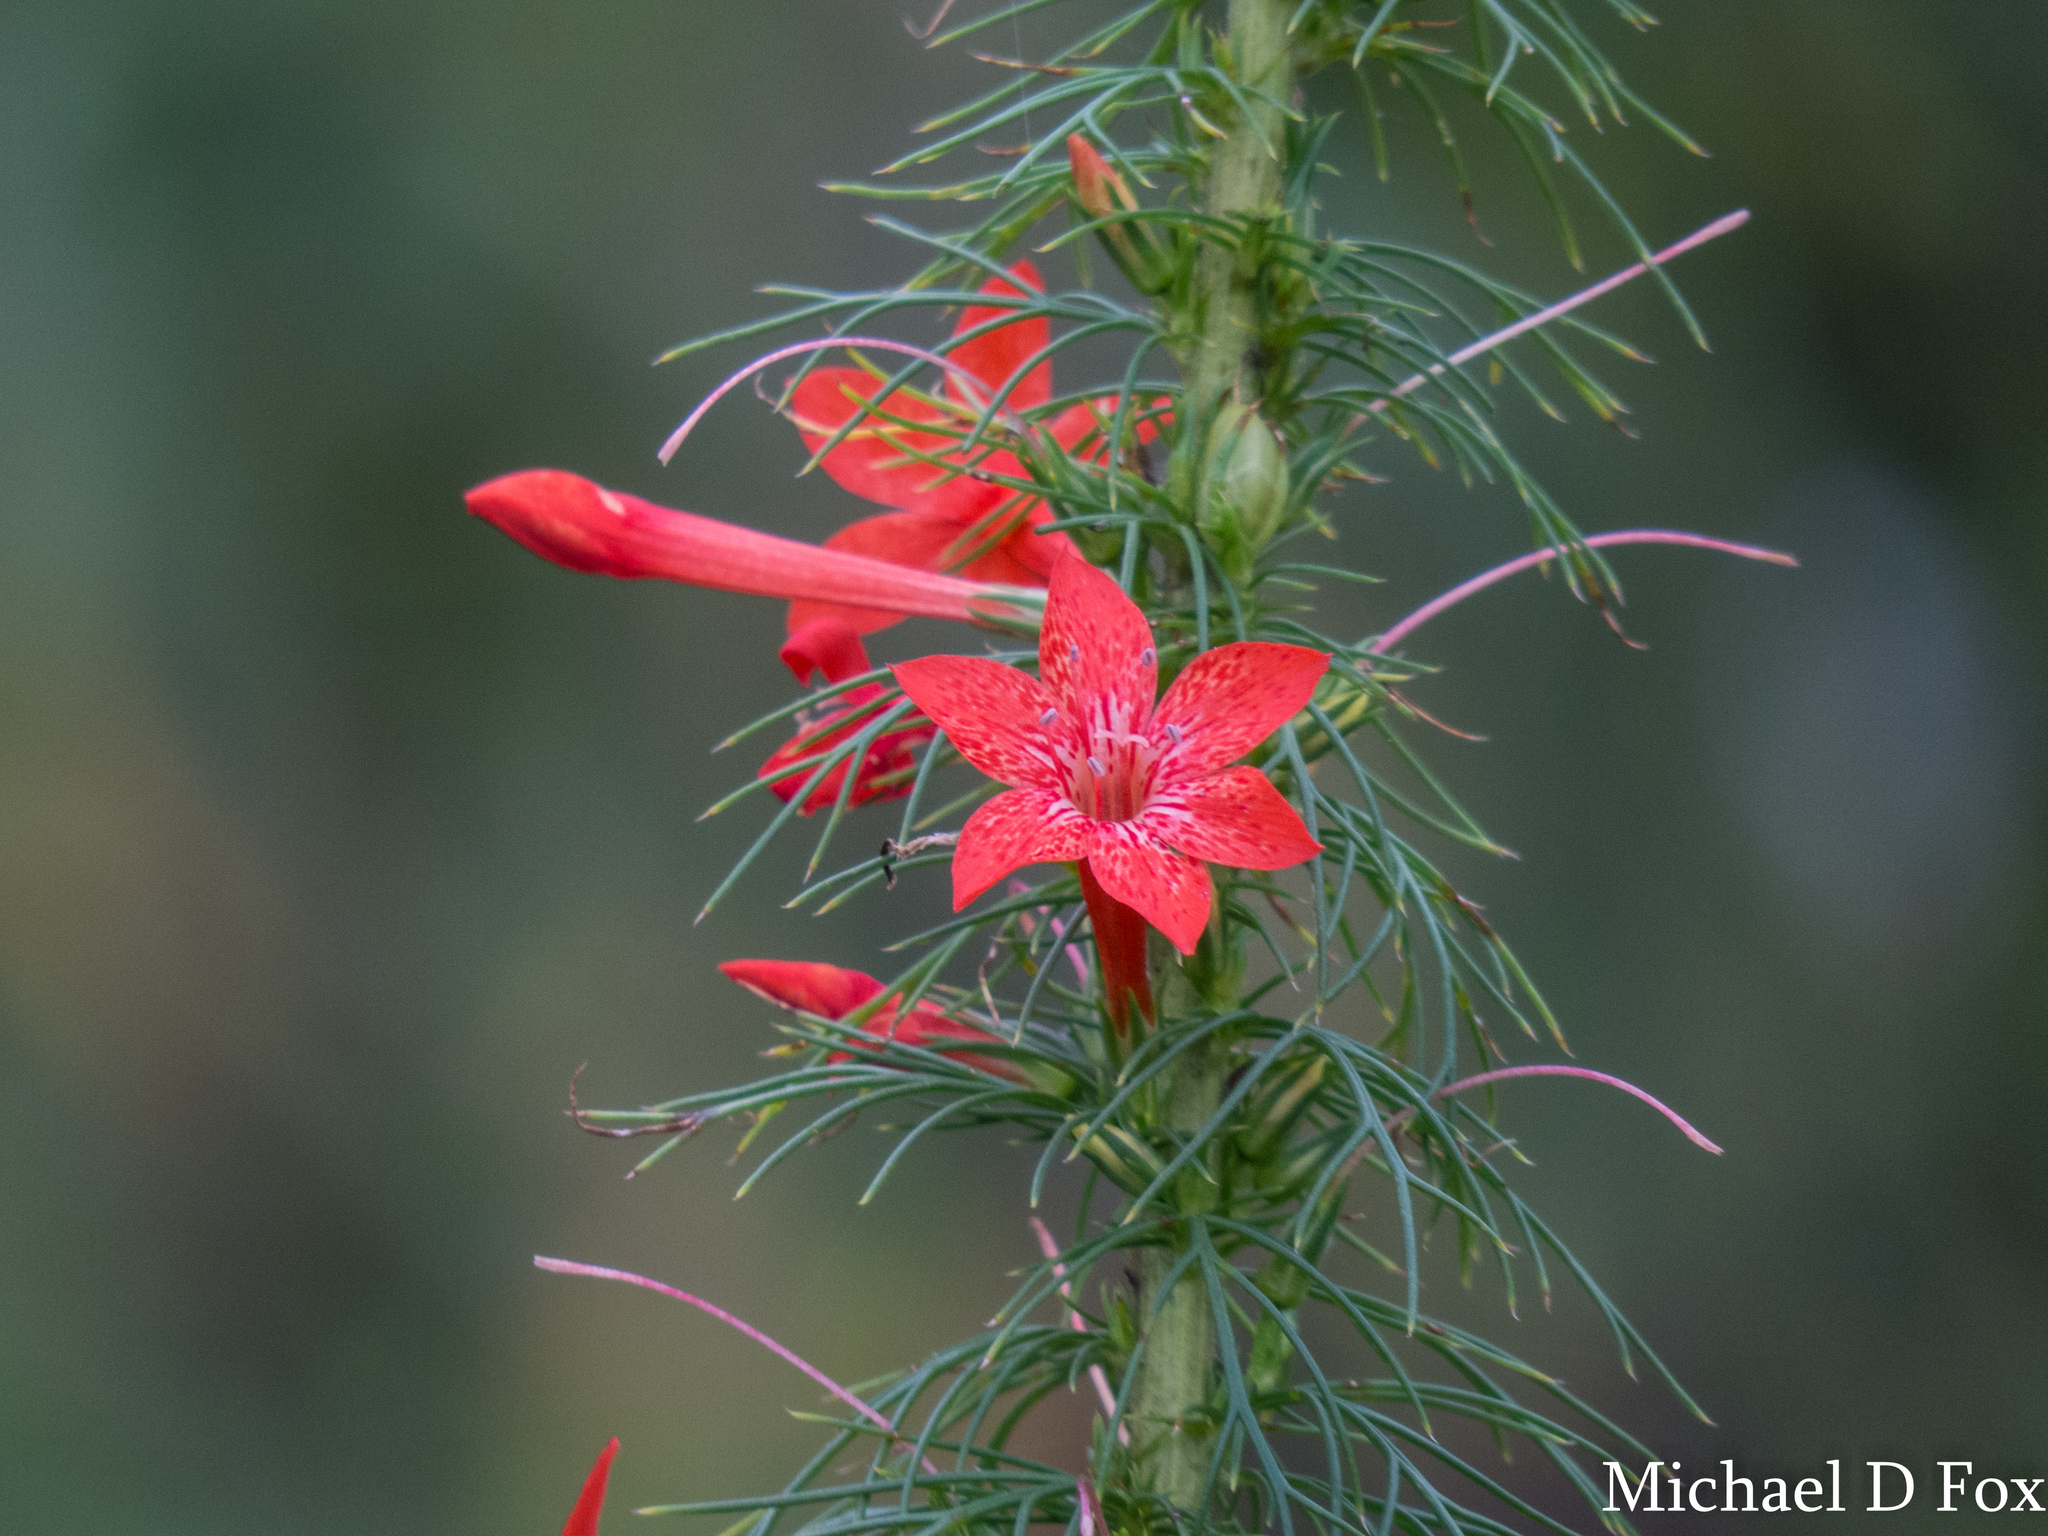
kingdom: Plantae
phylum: Tracheophyta
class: Magnoliopsida
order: Ericales
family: Polemoniaceae
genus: Ipomopsis
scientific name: Ipomopsis rubra
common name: Skyrocket
